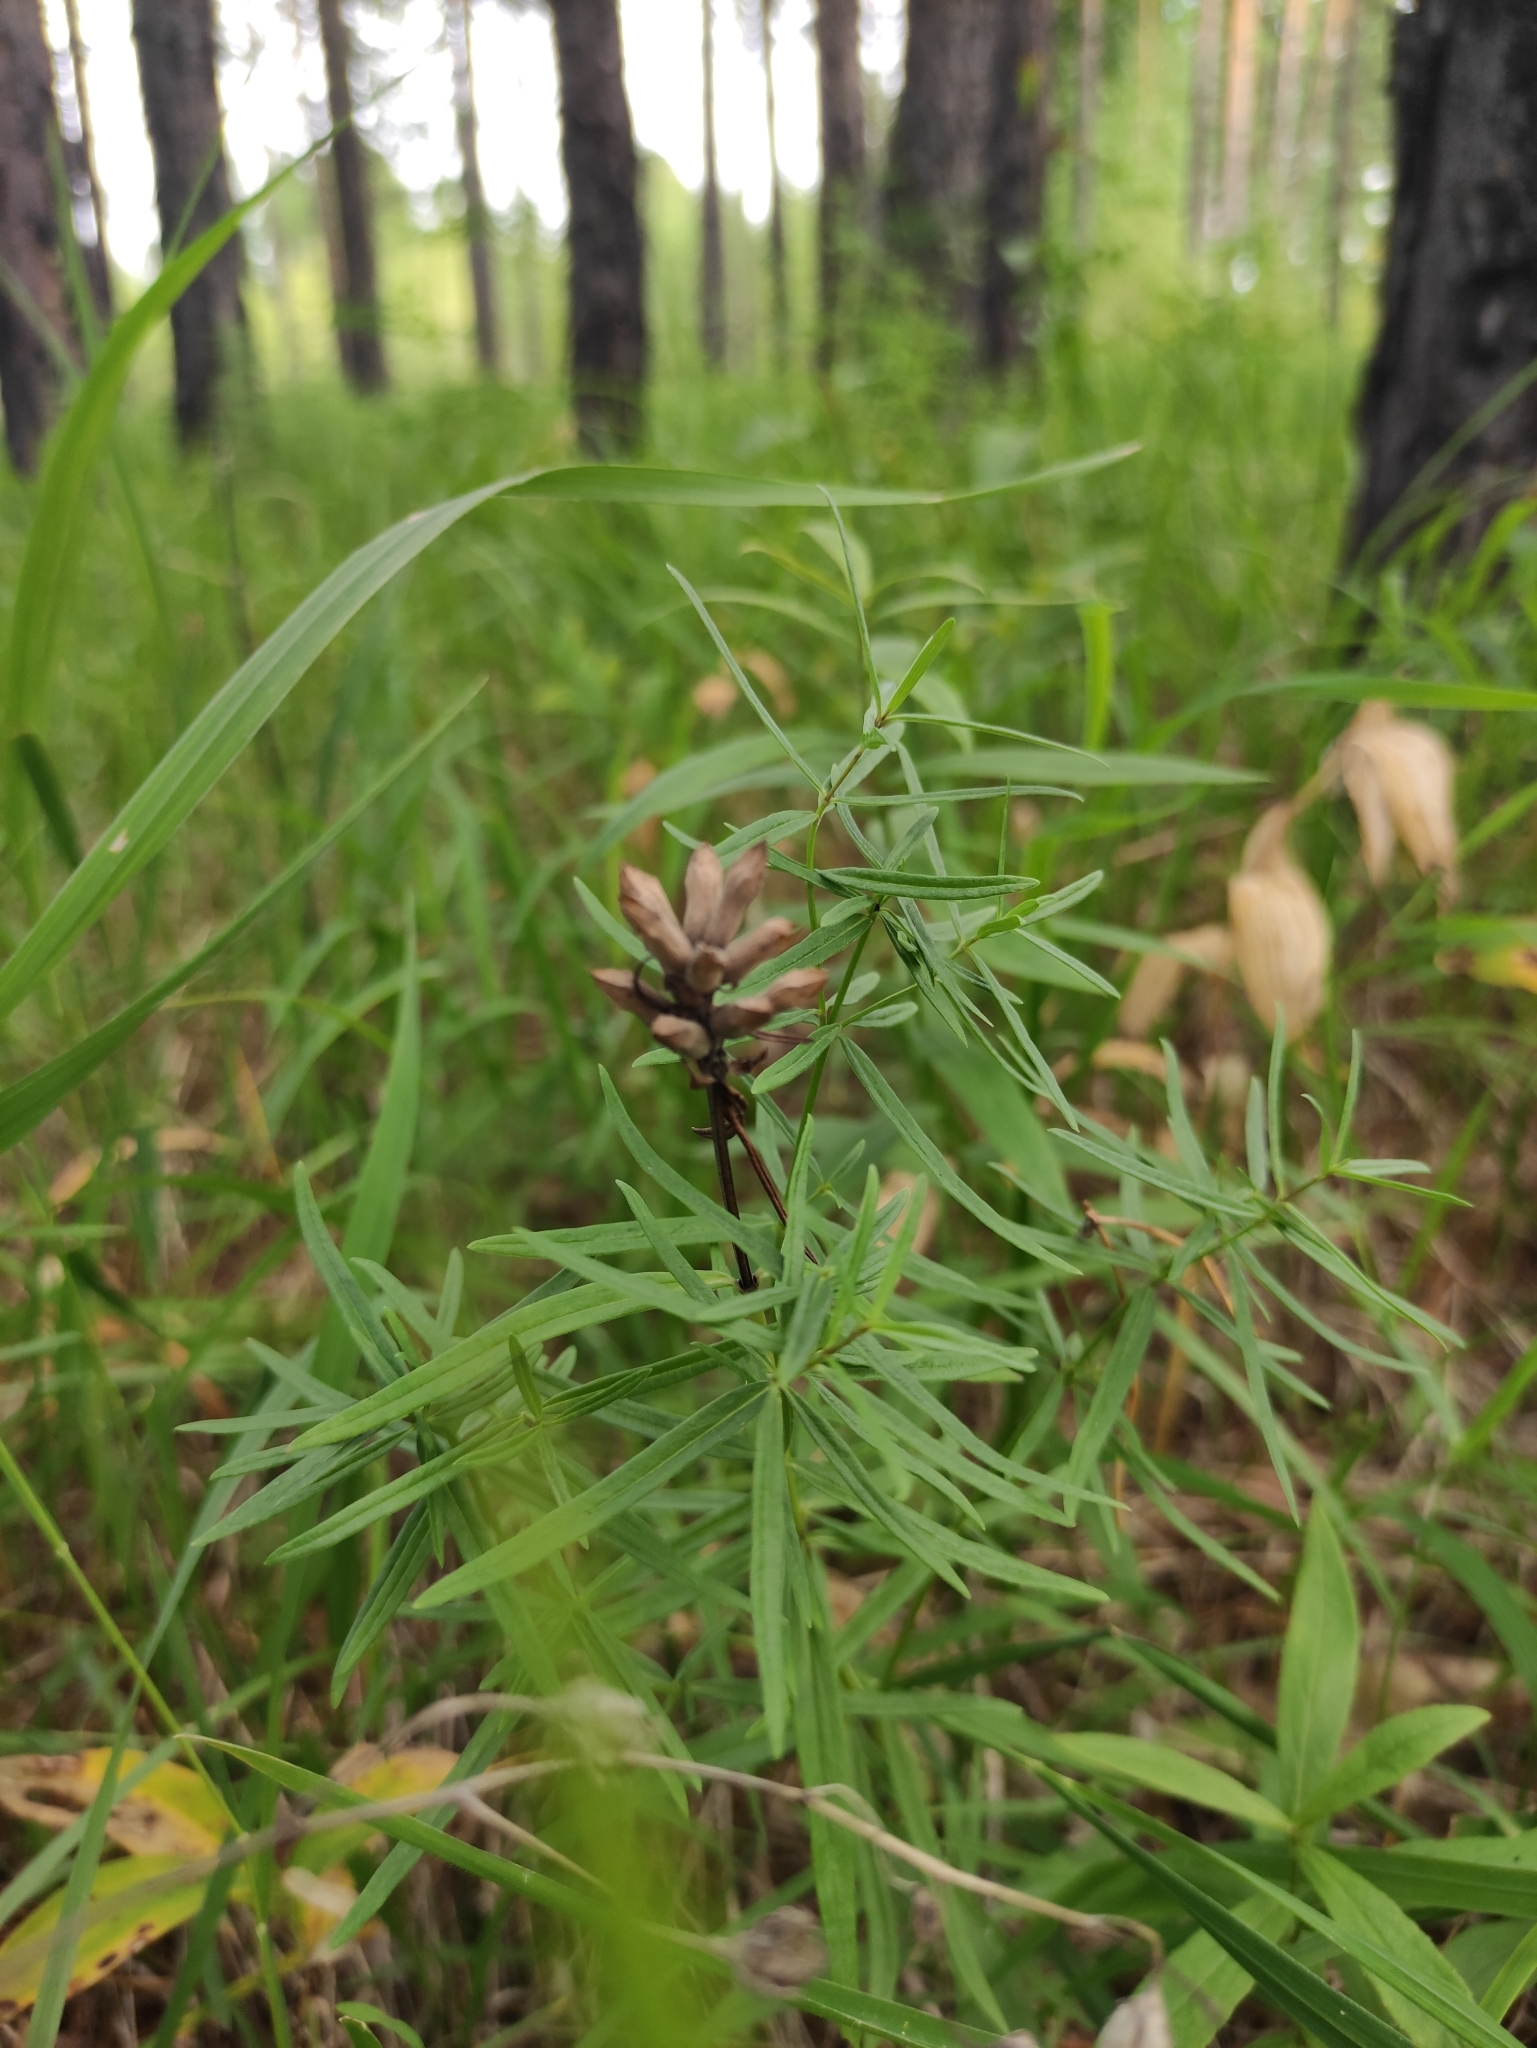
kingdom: Plantae
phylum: Tracheophyta
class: Magnoliopsida
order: Lamiales
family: Lamiaceae
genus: Dracocephalum
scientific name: Dracocephalum ruyschiana
